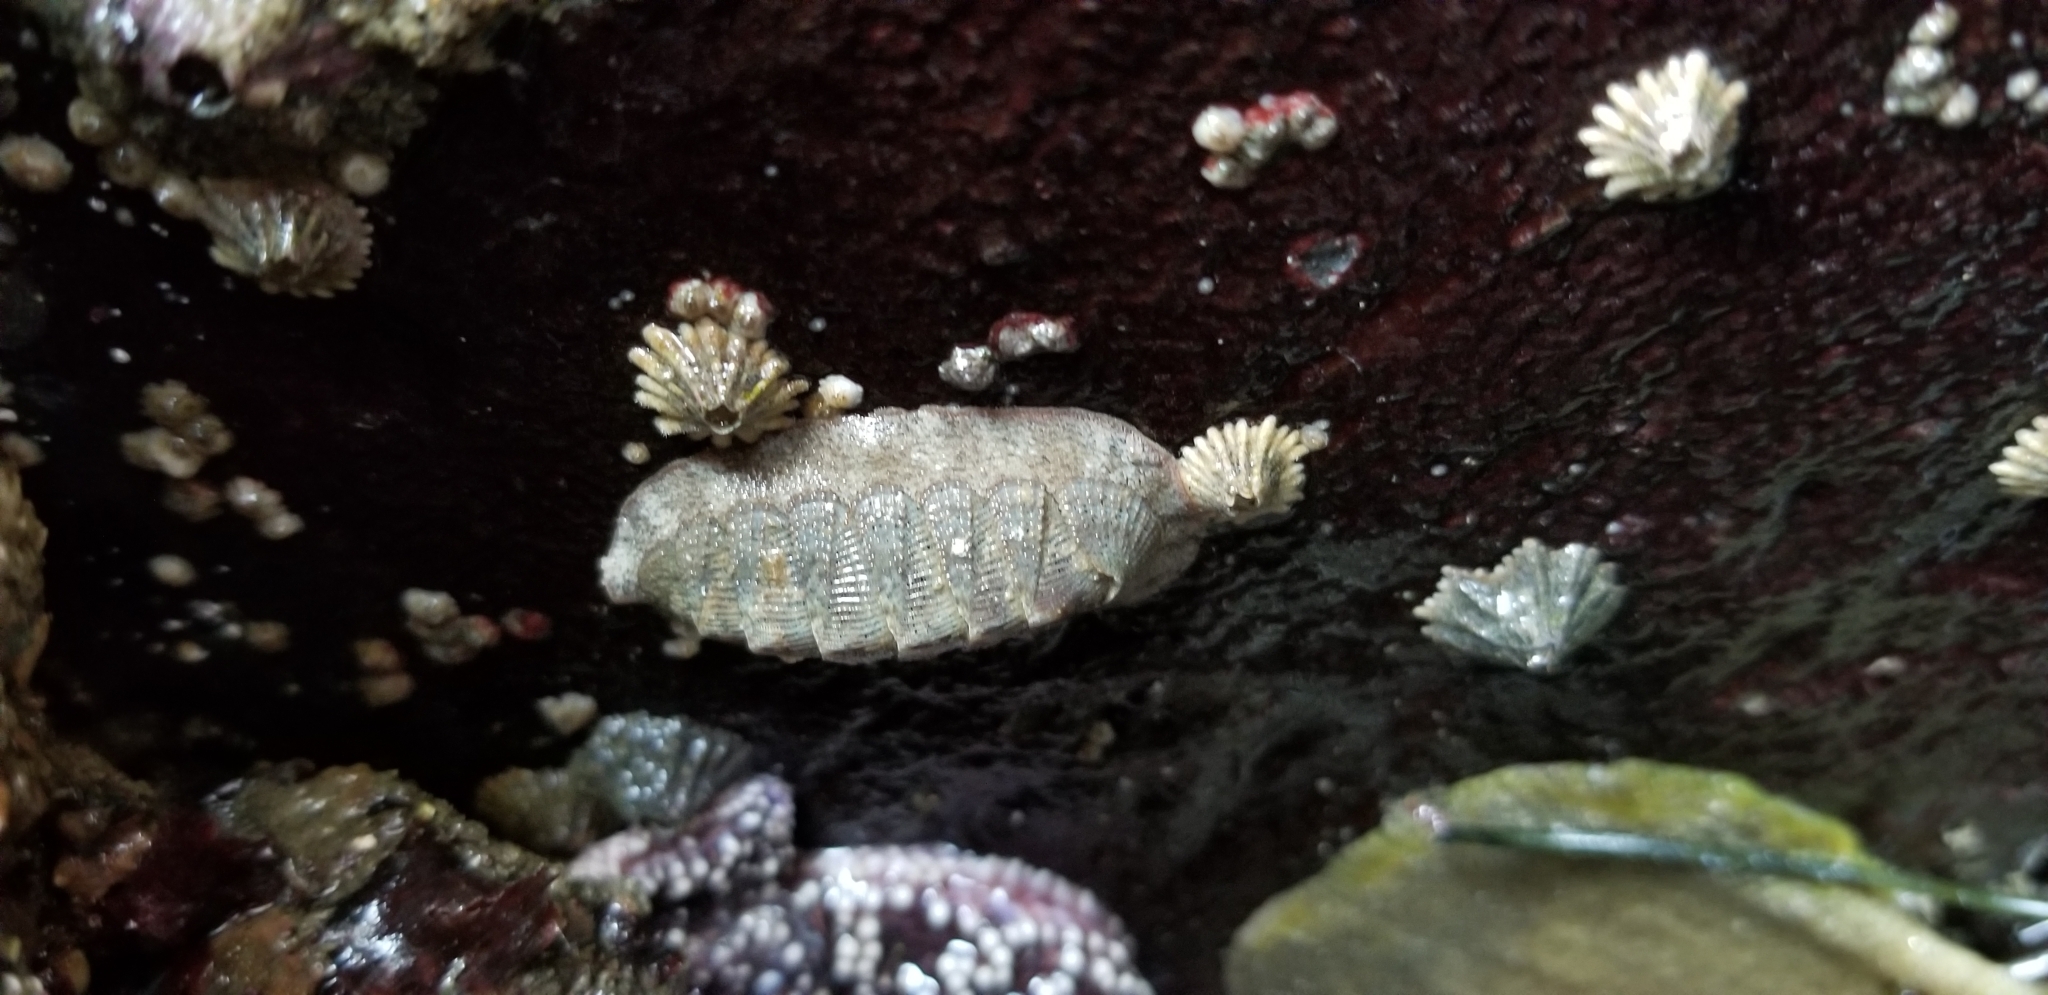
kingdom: Animalia
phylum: Mollusca
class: Polyplacophora
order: Chitonida
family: Ischnochitonidae
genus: Lepidozona
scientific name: Lepidozona cooperi
